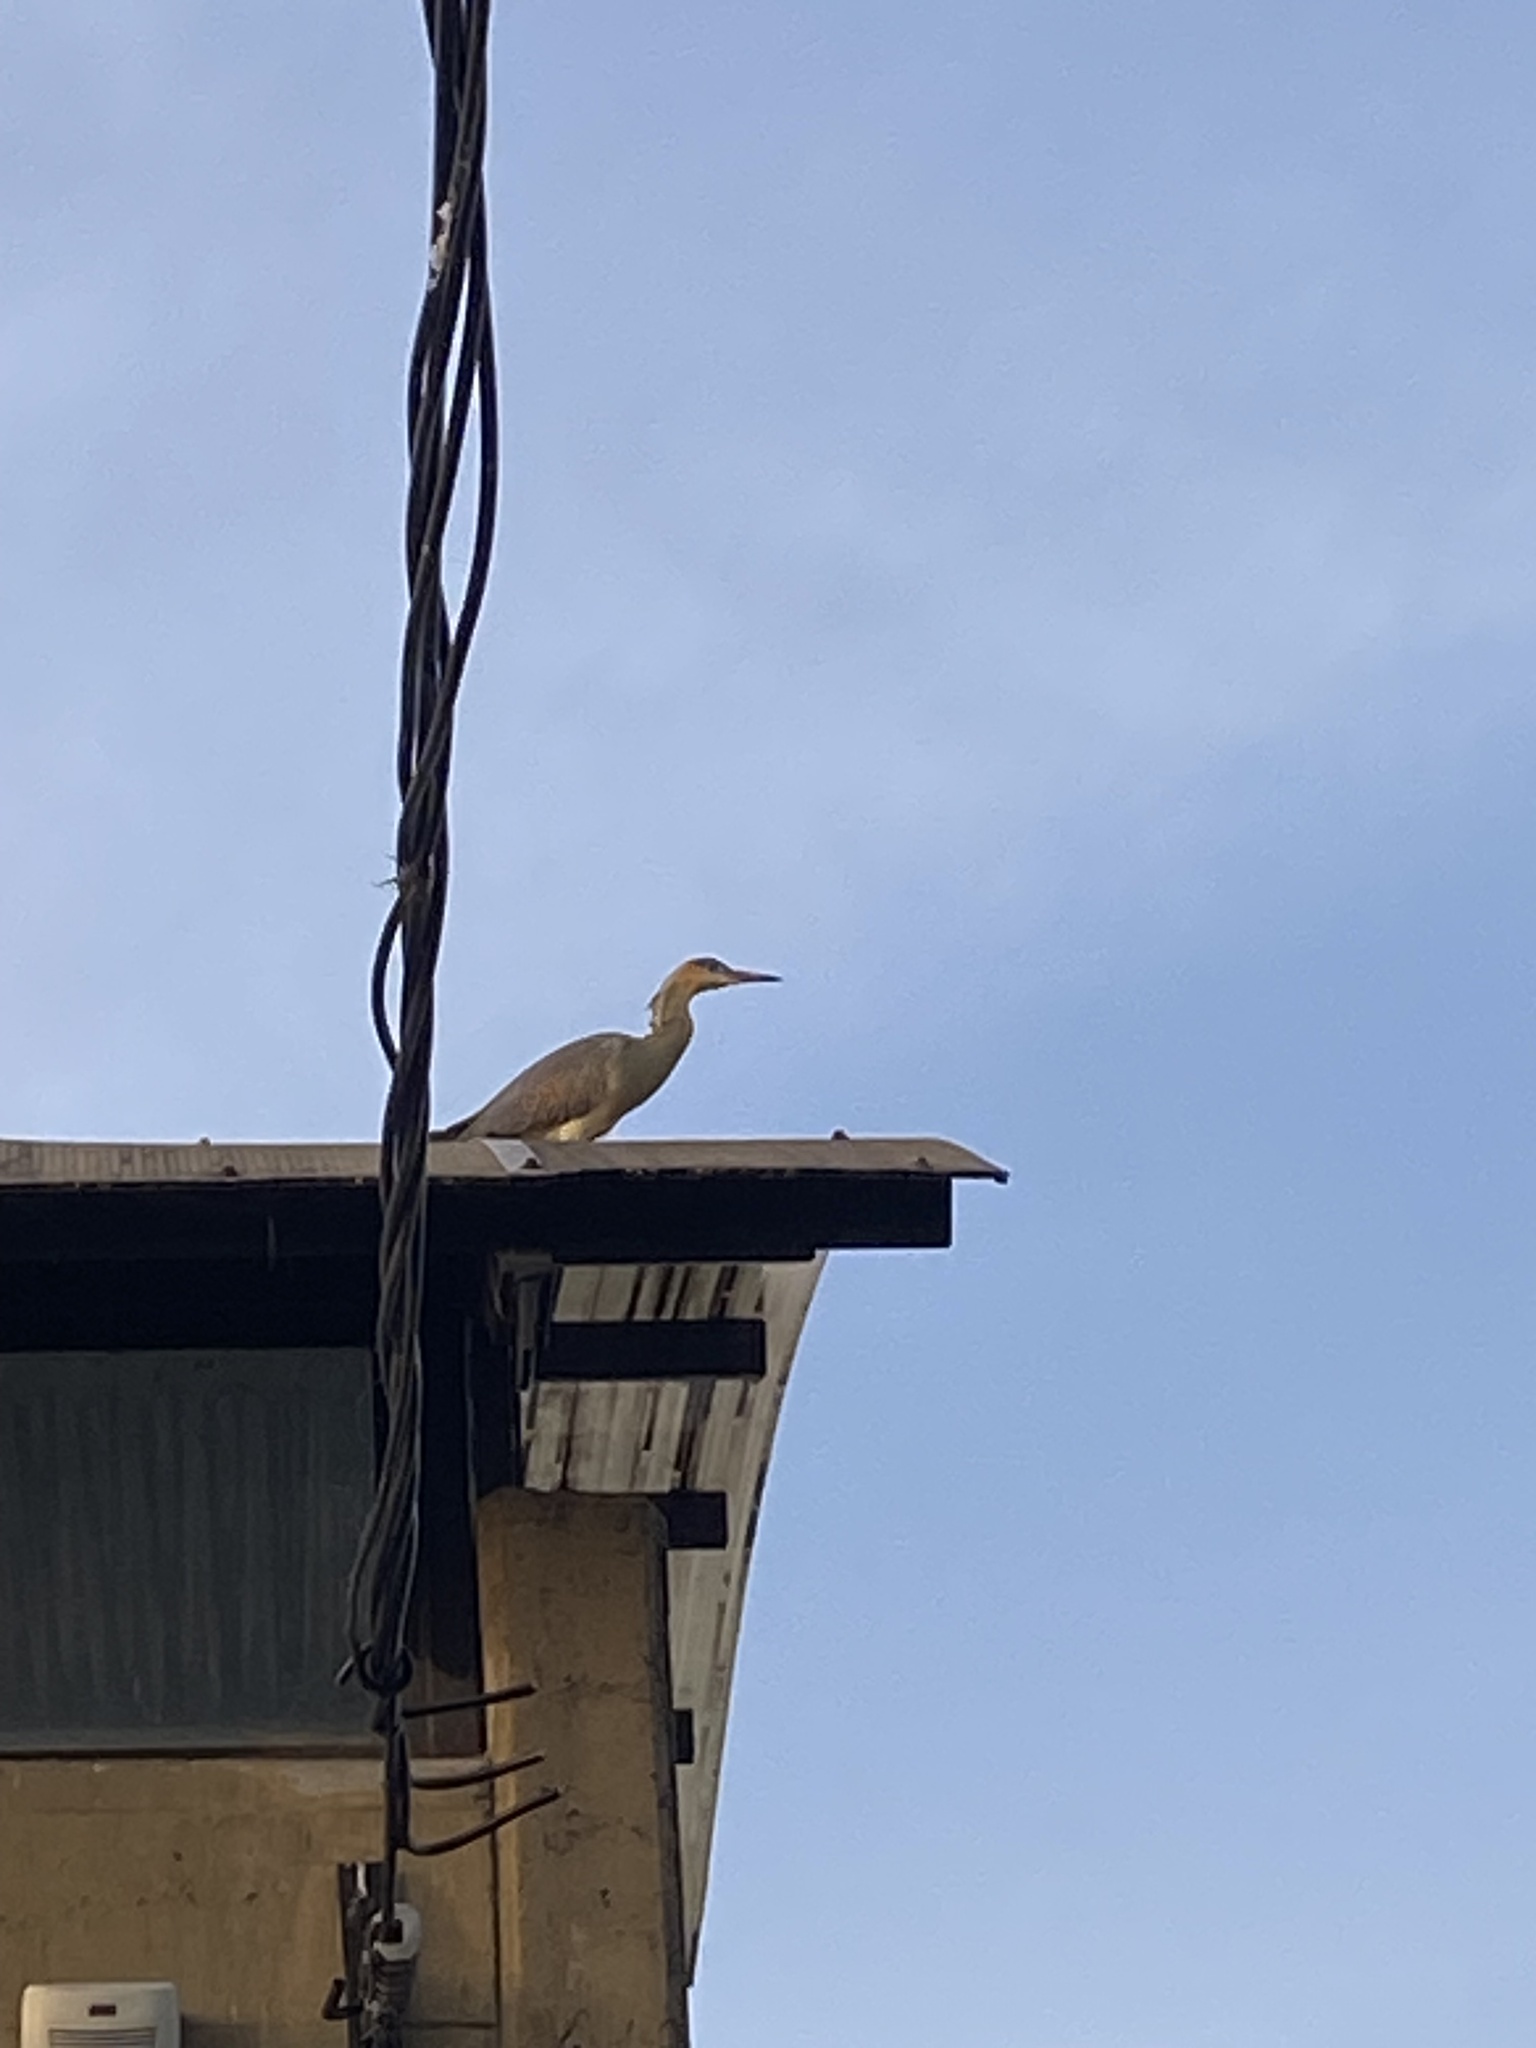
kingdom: Animalia
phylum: Chordata
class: Aves
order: Pelecaniformes
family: Ardeidae
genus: Syrigma
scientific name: Syrigma sibilatrix
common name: Whistling heron
